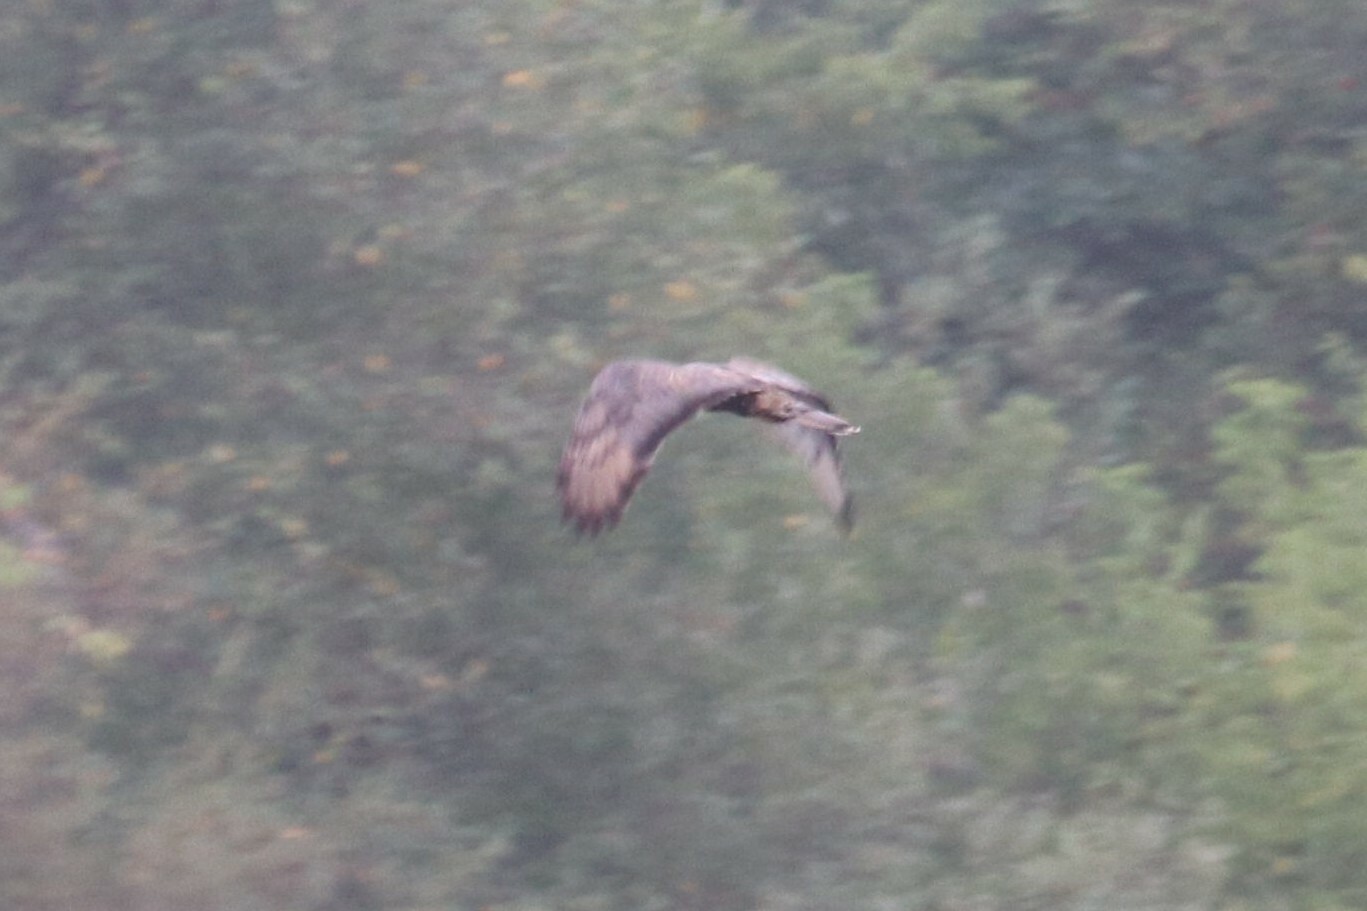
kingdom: Animalia
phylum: Chordata
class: Aves
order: Accipitriformes
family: Accipitridae
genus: Pernis
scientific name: Pernis apivorus
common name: European honey buzzard
